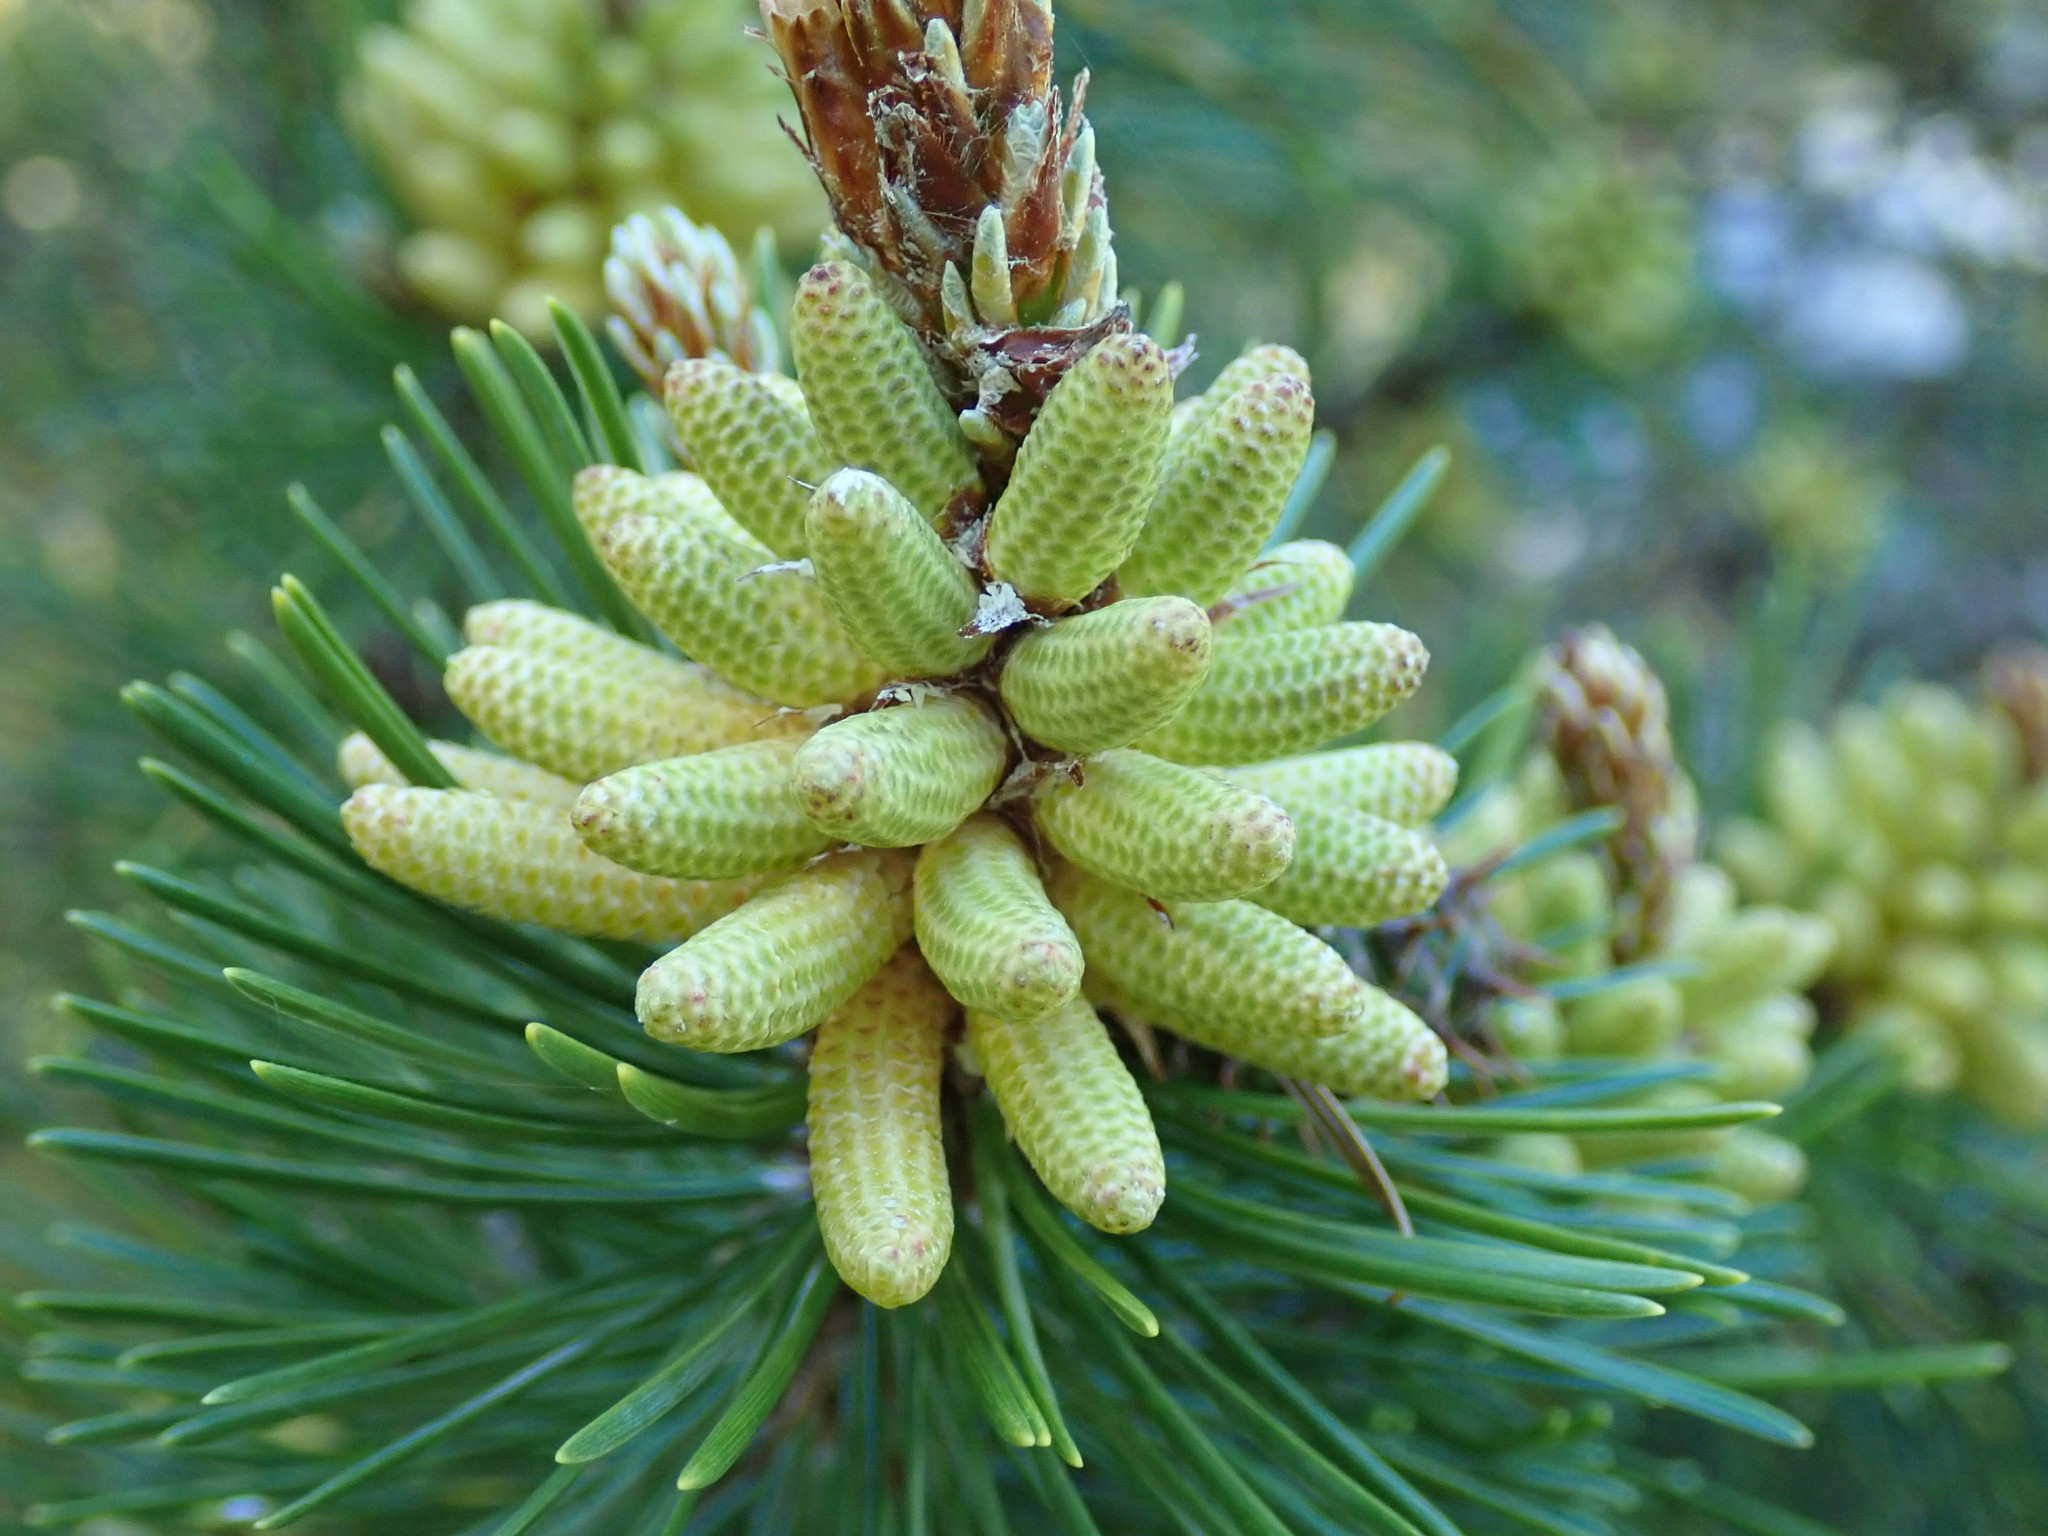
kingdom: Plantae
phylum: Tracheophyta
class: Pinopsida
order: Pinales
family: Pinaceae
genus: Pinus
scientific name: Pinus contorta
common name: Lodgepole pine
